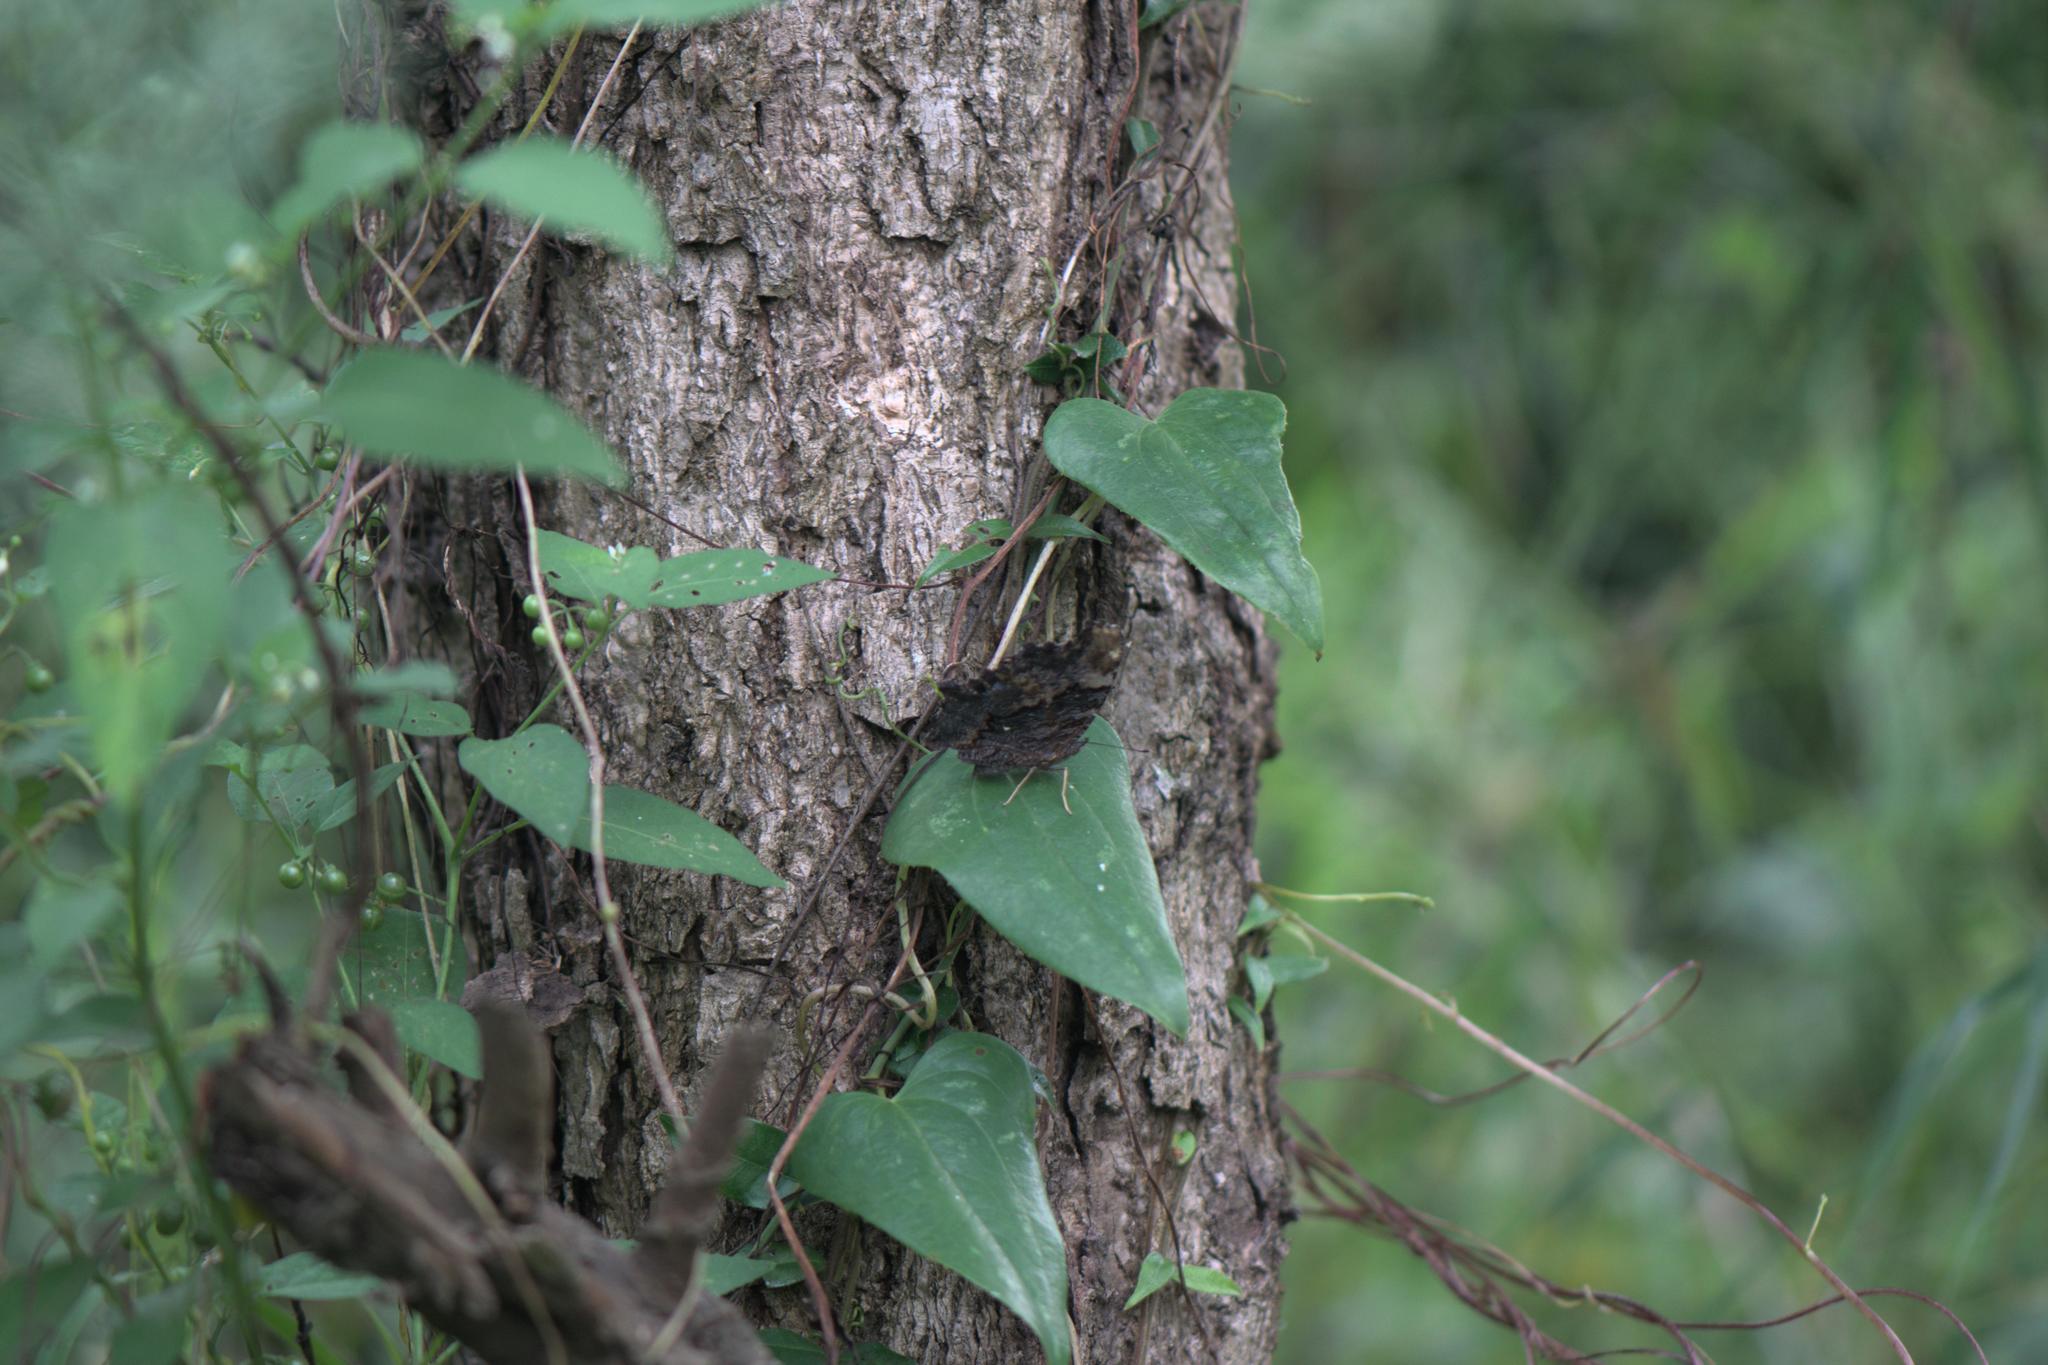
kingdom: Animalia
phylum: Arthropoda
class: Insecta
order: Lepidoptera
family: Nymphalidae
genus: Vanessa
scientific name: Vanessa Kaniska canace
